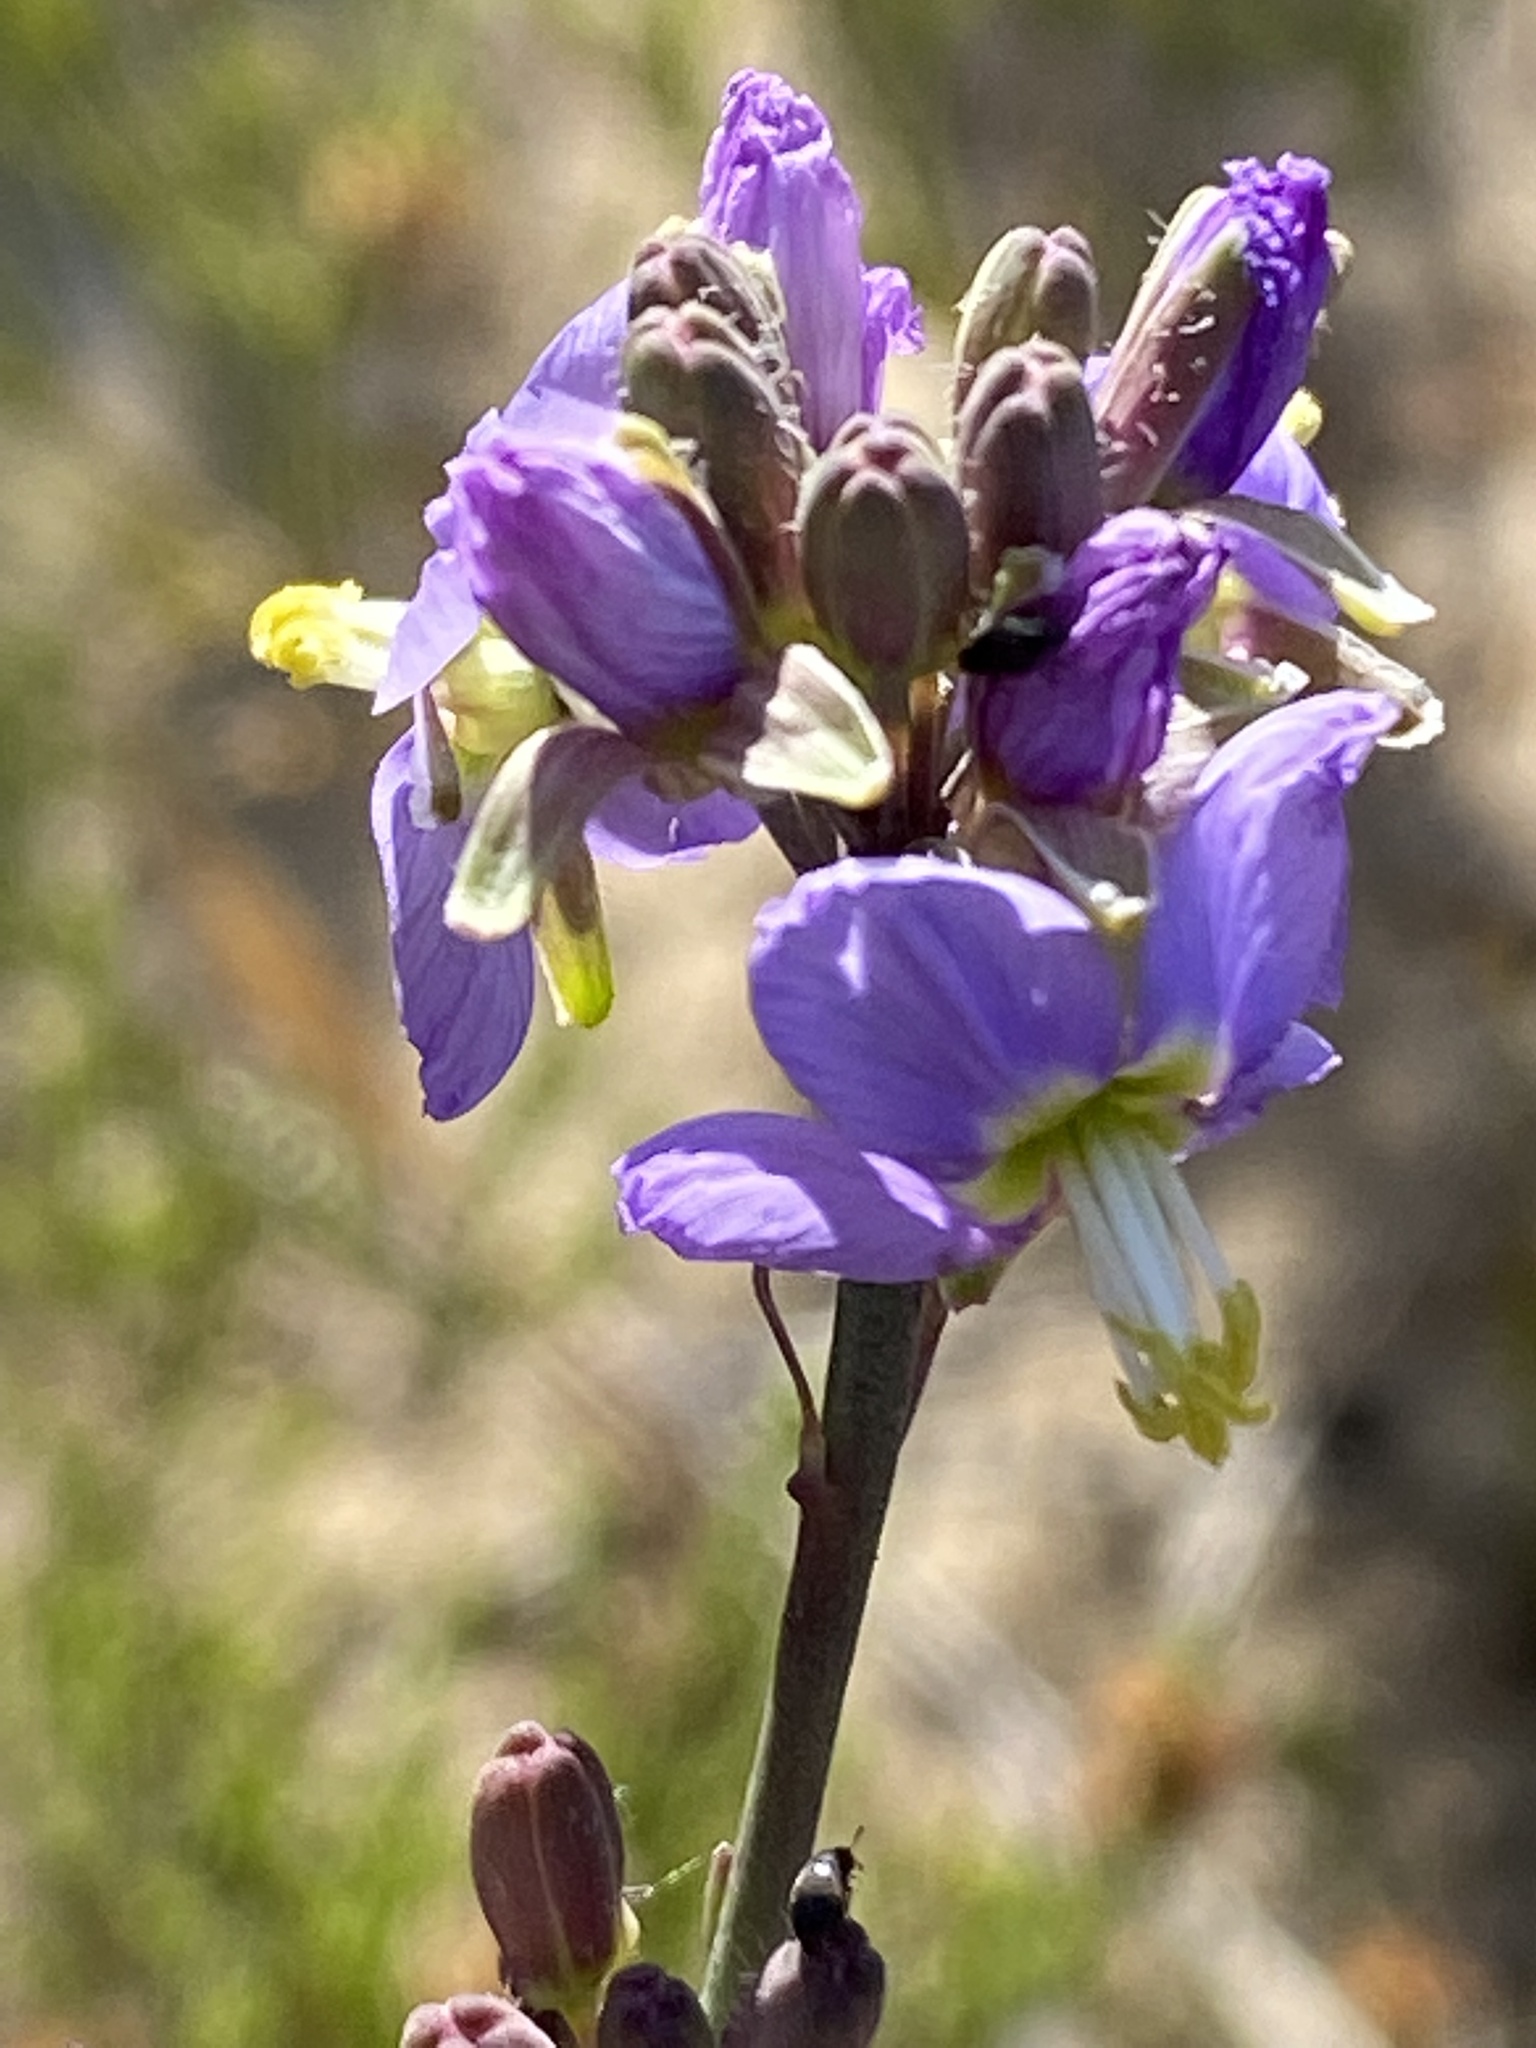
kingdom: Plantae
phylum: Tracheophyta
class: Magnoliopsida
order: Brassicales
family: Brassicaceae
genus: Heliophila
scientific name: Heliophila linearis
